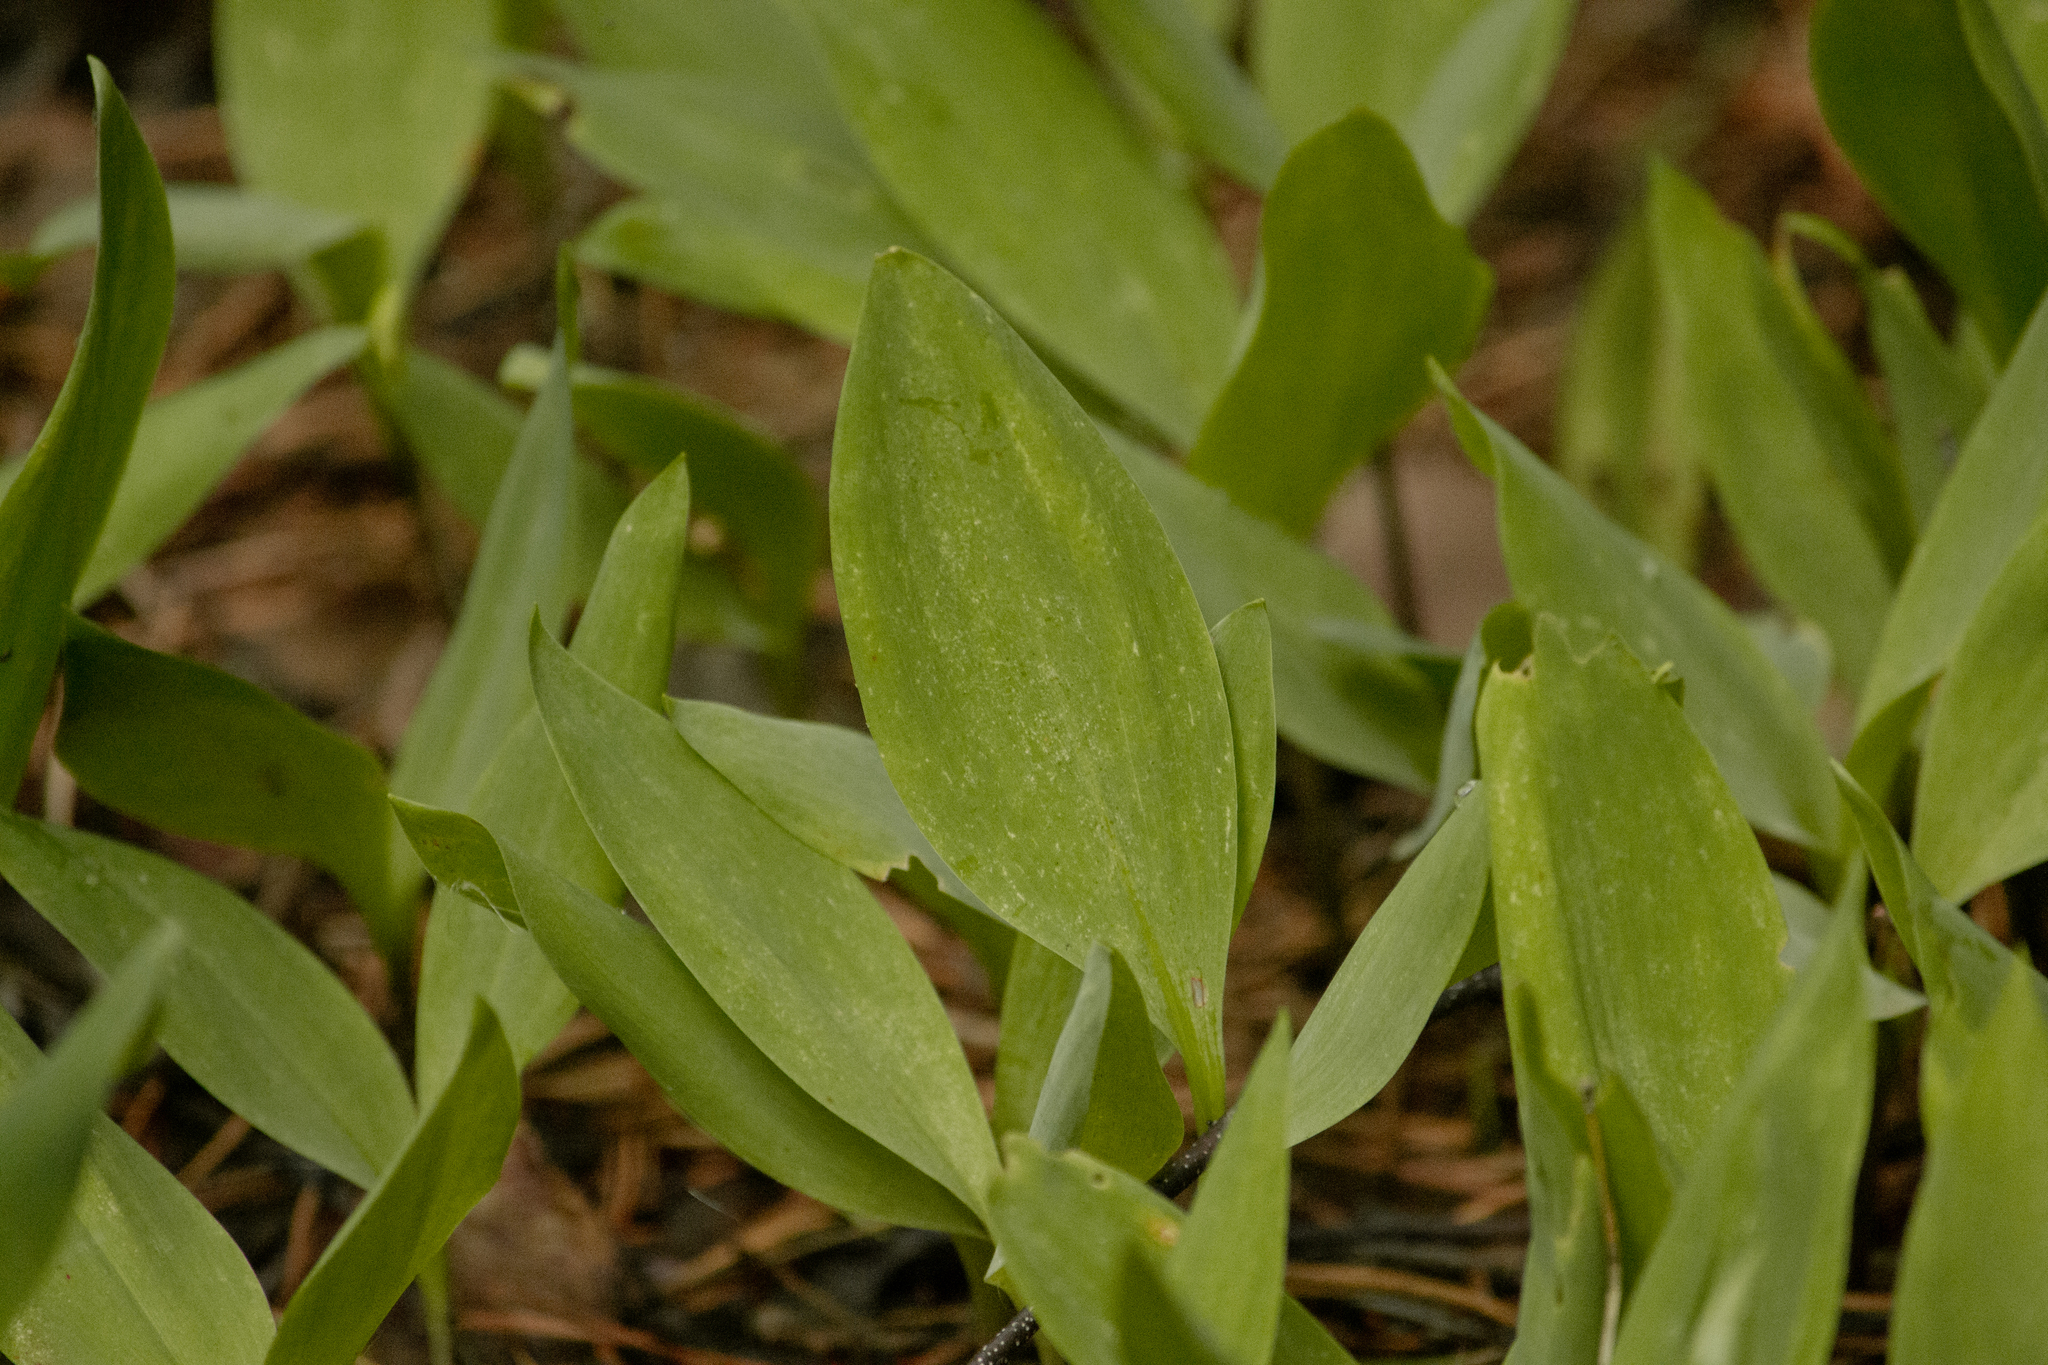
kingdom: Plantae
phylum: Tracheophyta
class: Liliopsida
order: Asparagales
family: Asparagaceae
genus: Convallaria
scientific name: Convallaria majalis
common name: Lily-of-the-valley
